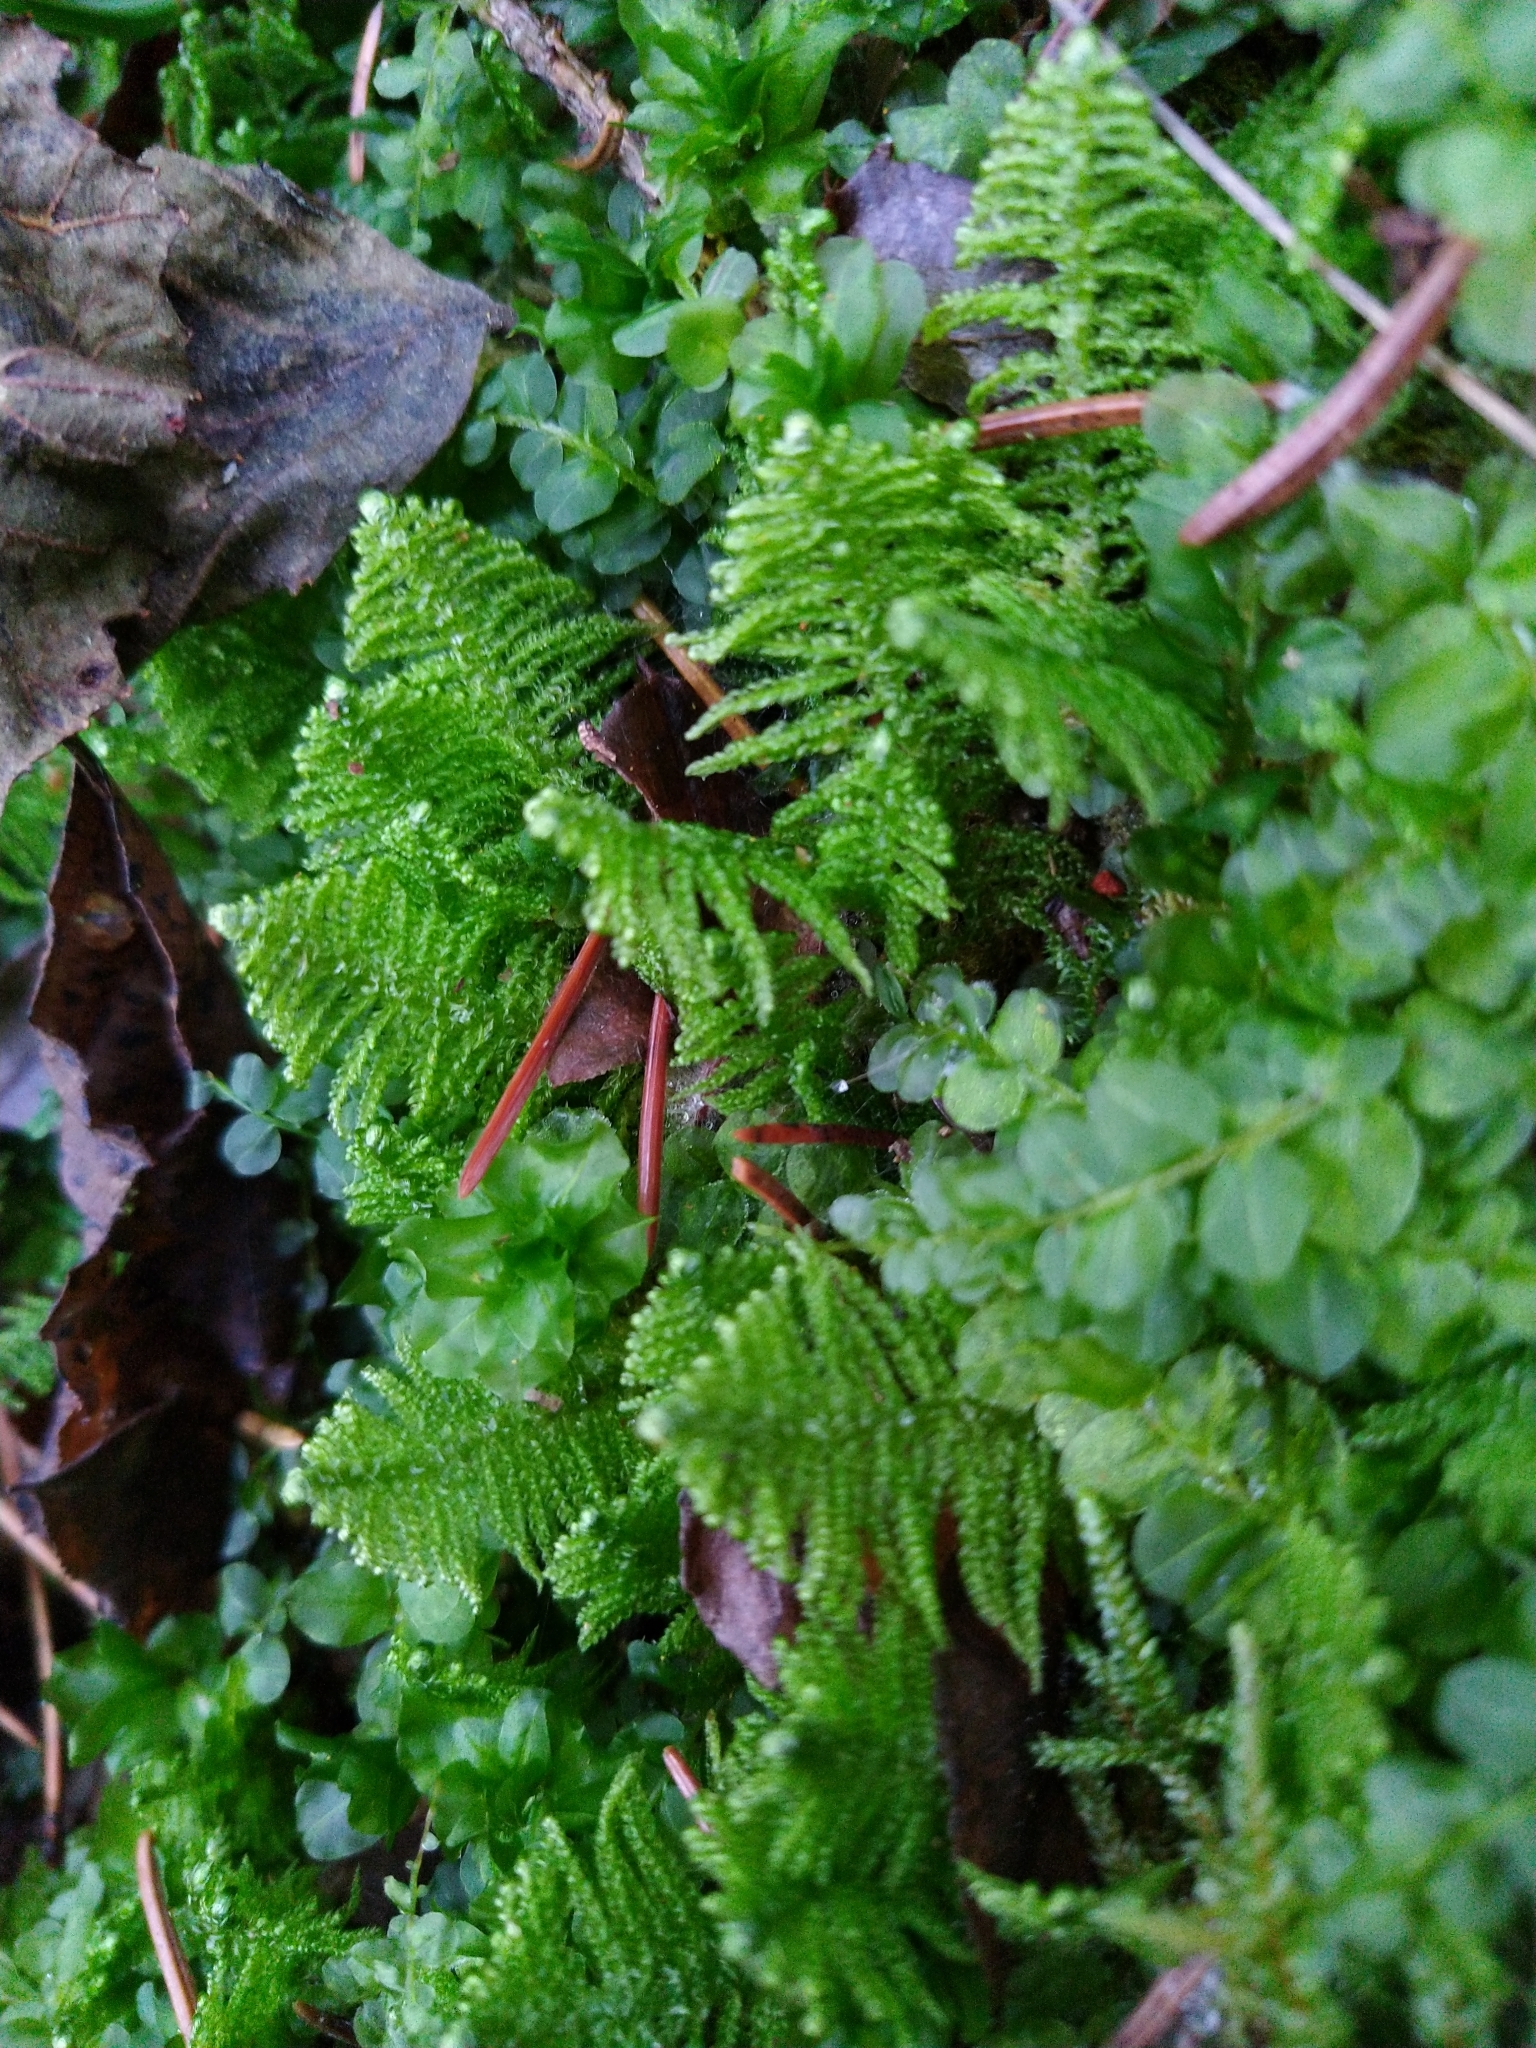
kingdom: Plantae
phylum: Bryophyta
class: Bryopsida
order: Hypnales
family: Pylaisiaceae
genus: Ptilium
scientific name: Ptilium crista-castrensis
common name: Knight's plume moss
